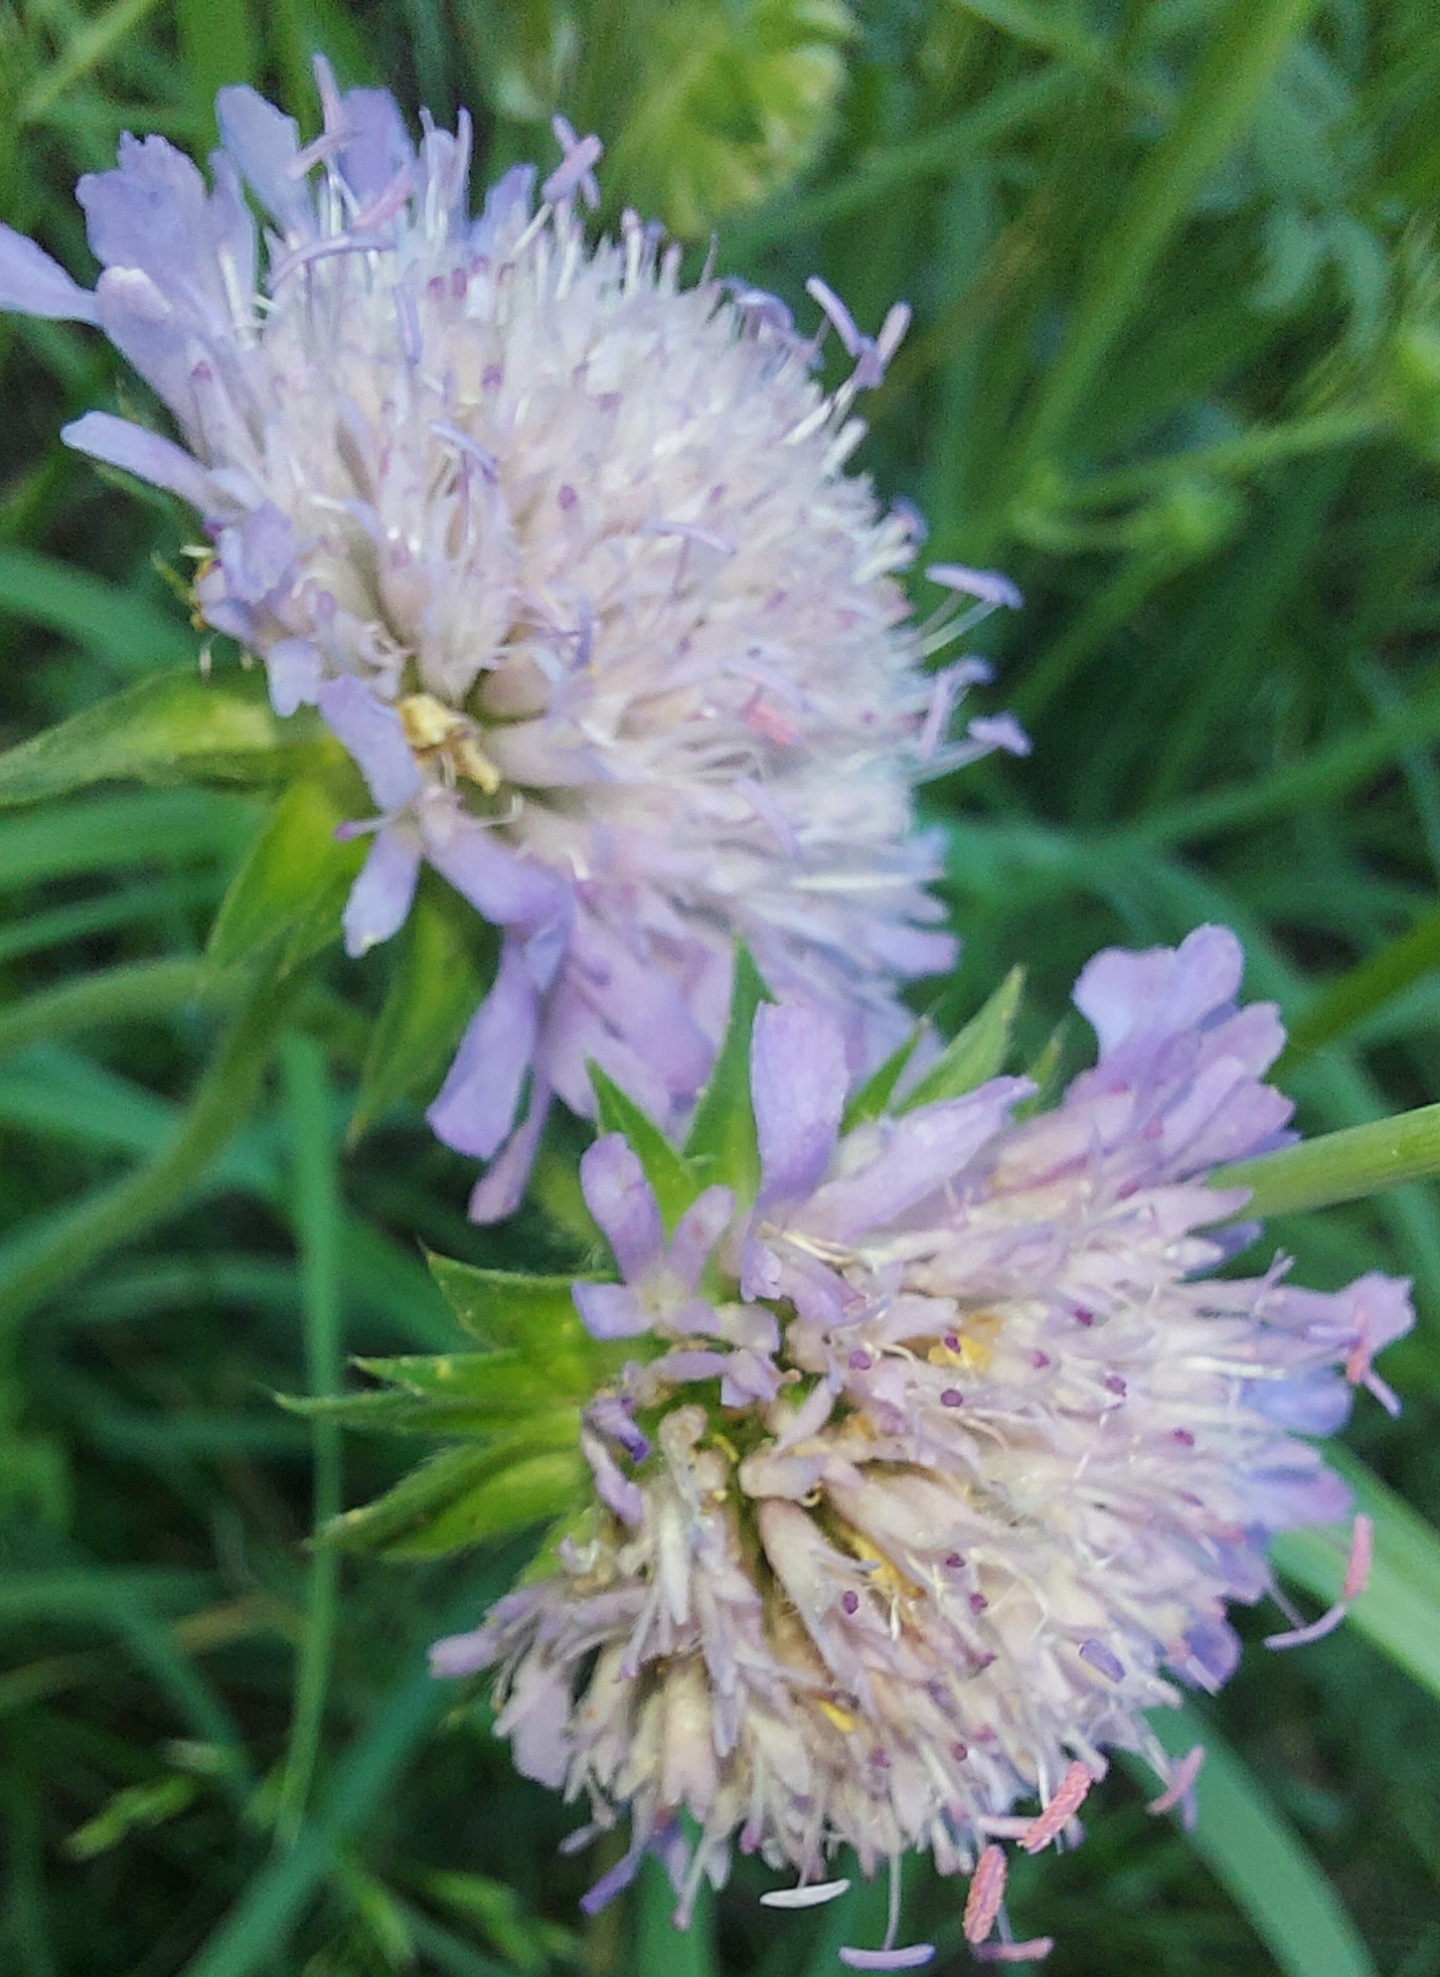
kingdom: Plantae
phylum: Tracheophyta
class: Magnoliopsida
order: Dipsacales
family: Caprifoliaceae
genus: Knautia
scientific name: Knautia arvensis
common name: Field scabiosa
